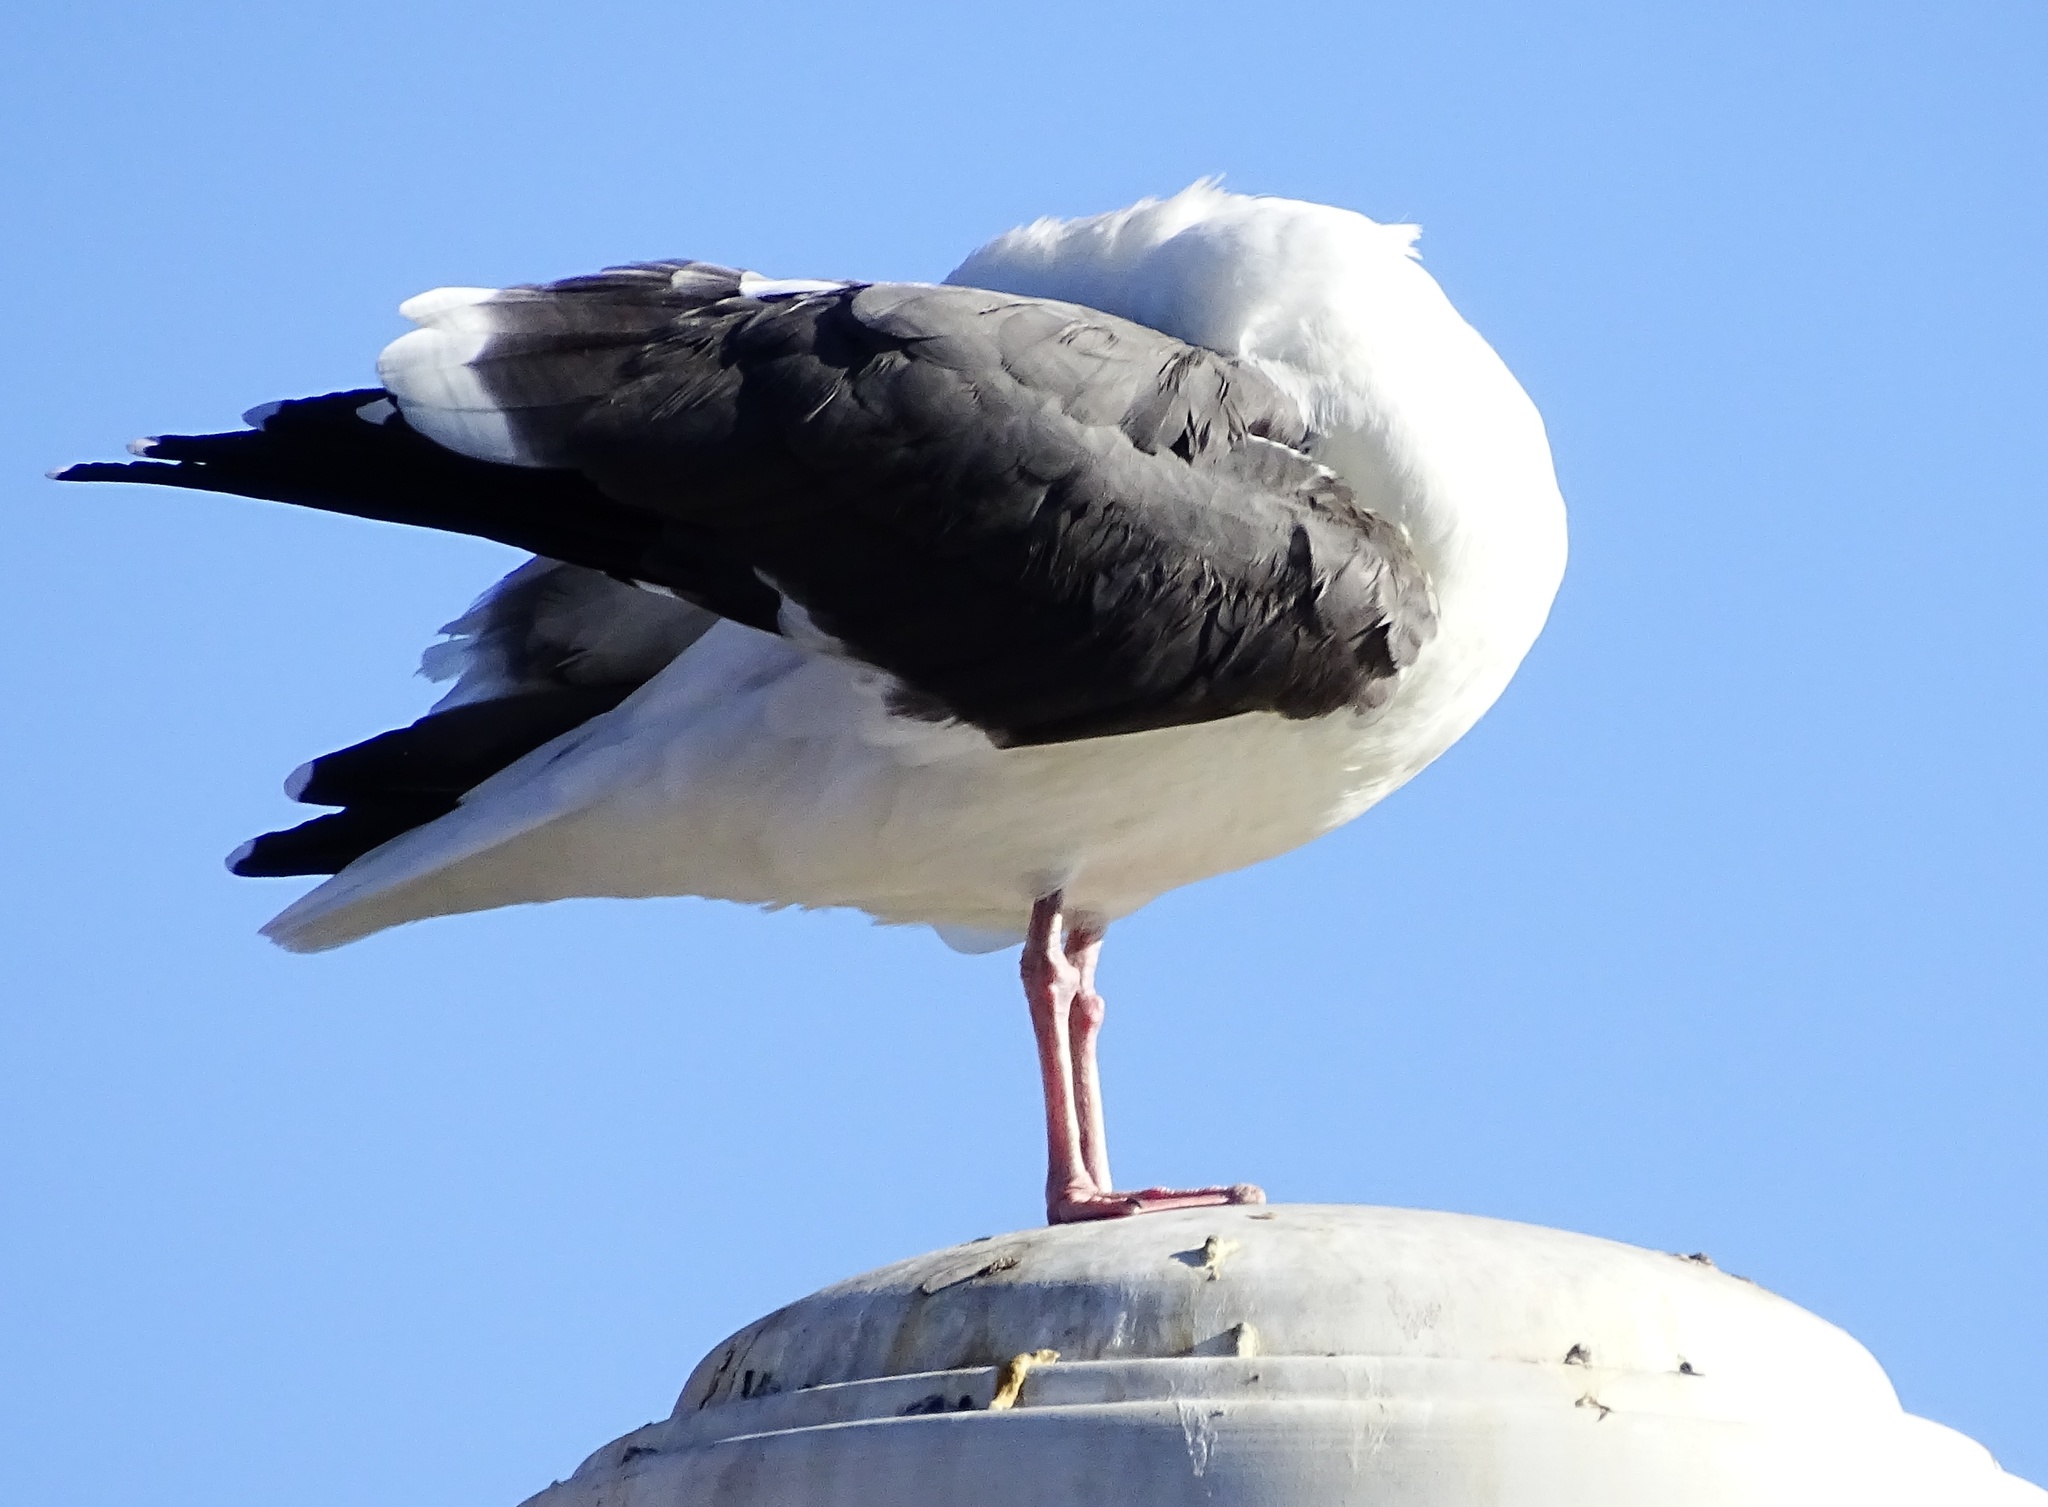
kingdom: Animalia
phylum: Chordata
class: Aves
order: Charadriiformes
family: Laridae
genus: Larus
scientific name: Larus occidentalis
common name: Western gull
